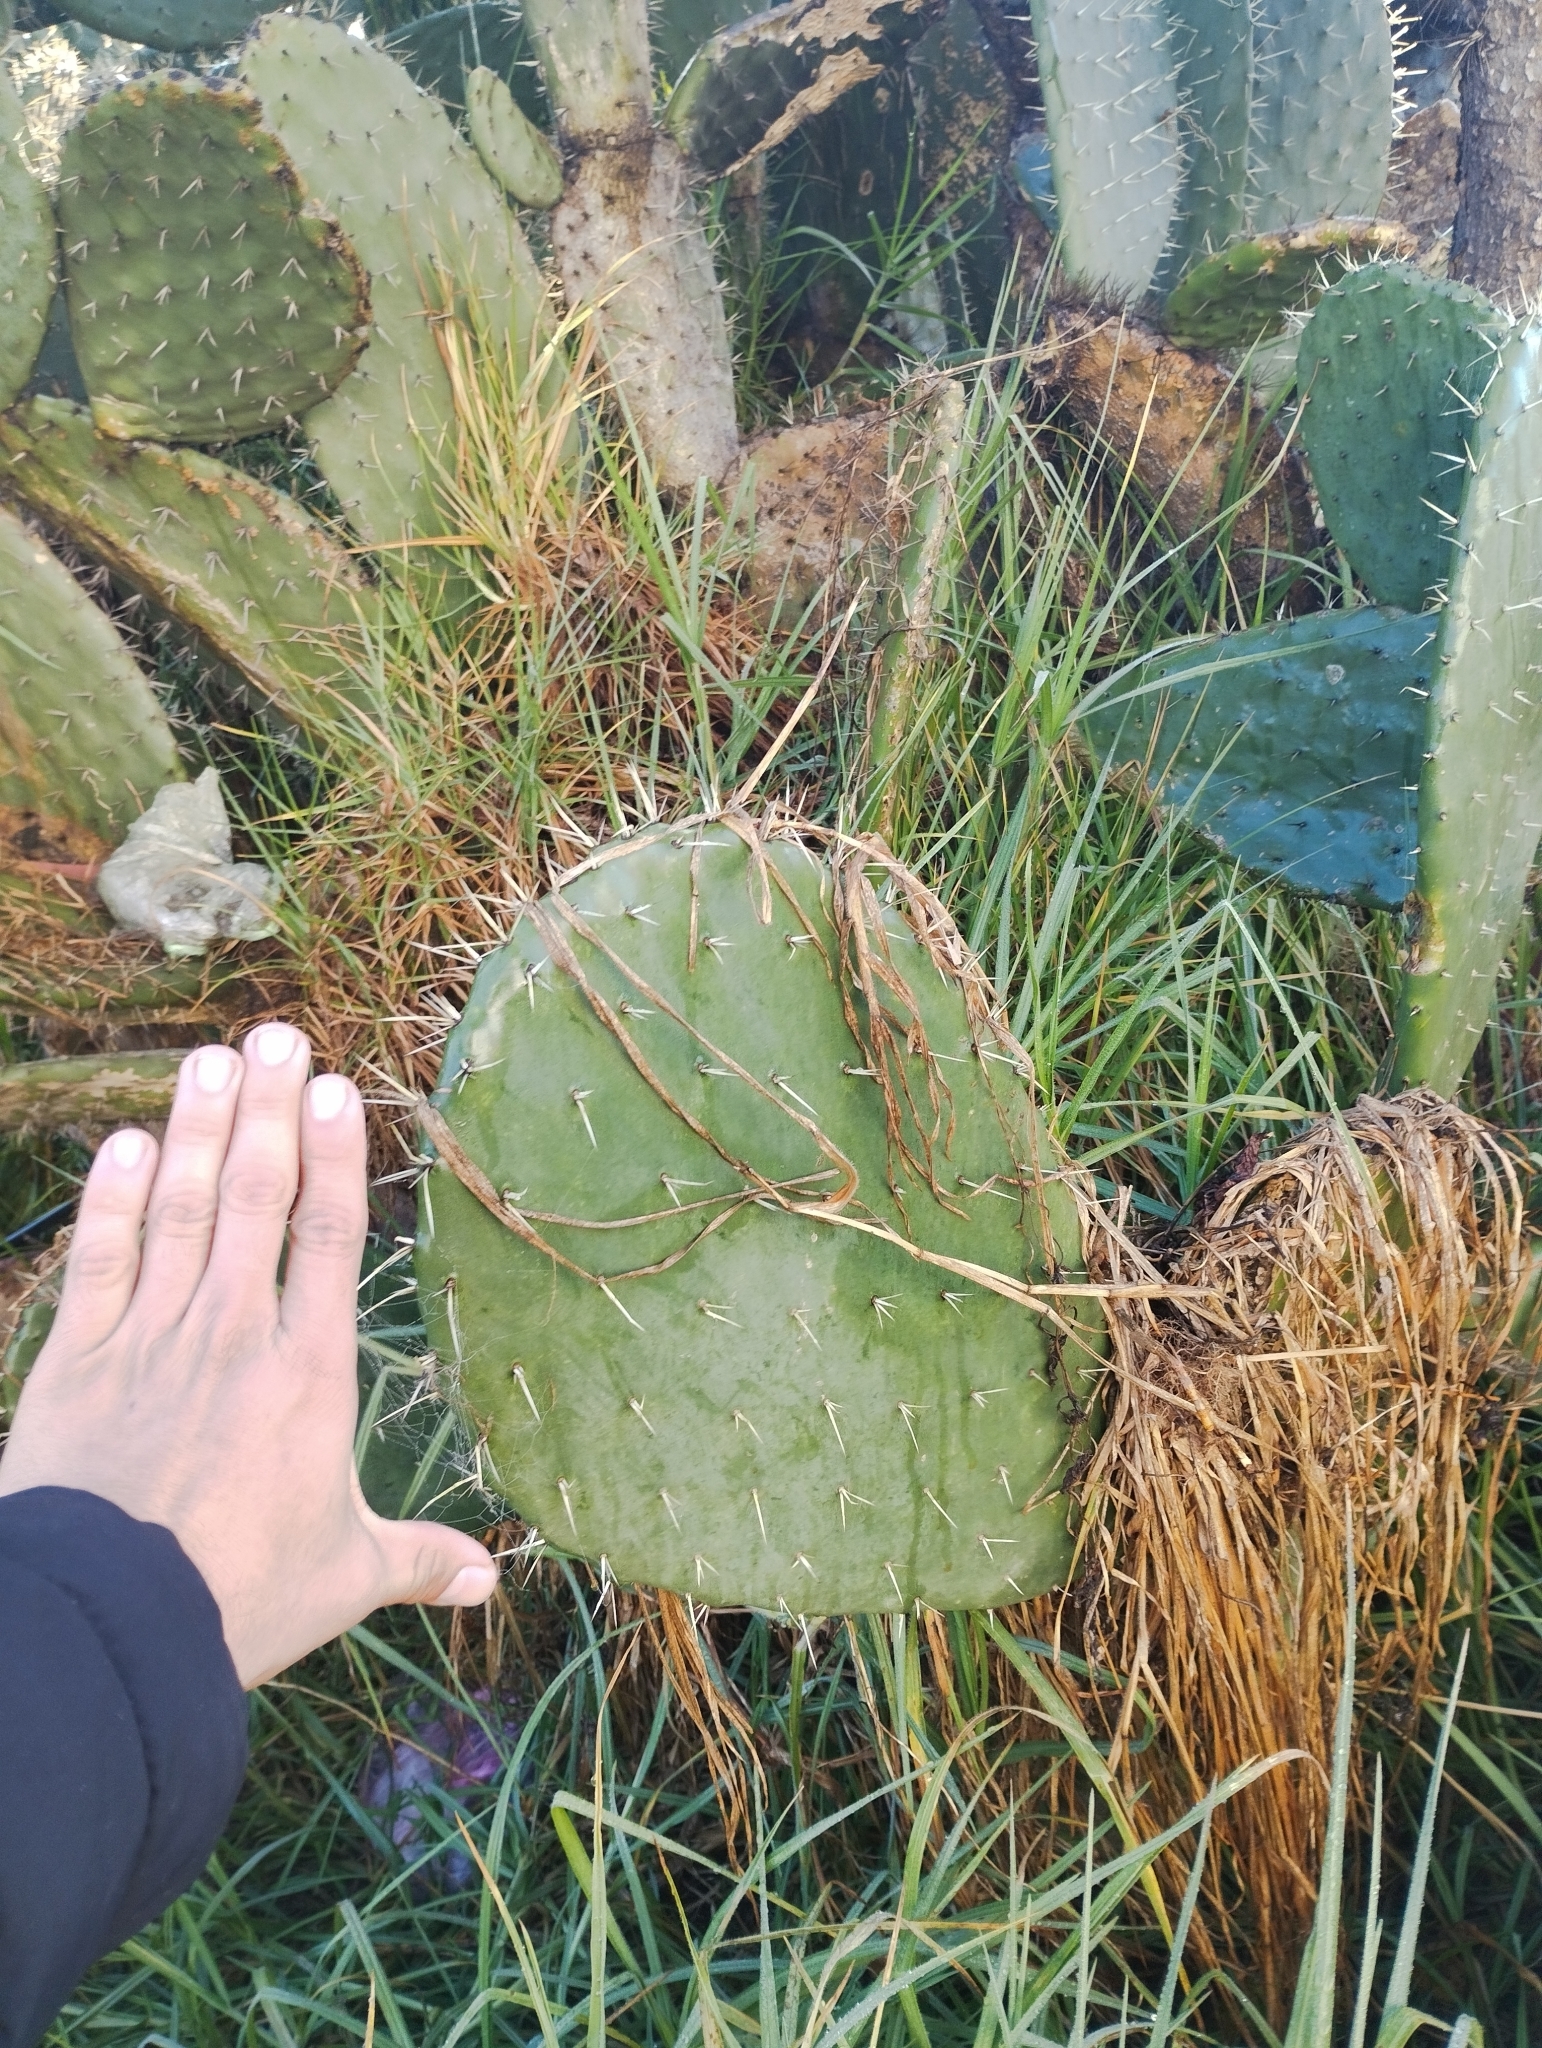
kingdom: Plantae
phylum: Tracheophyta
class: Magnoliopsida
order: Caryophyllales
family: Cactaceae
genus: Opuntia
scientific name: Opuntia lasiacantha
